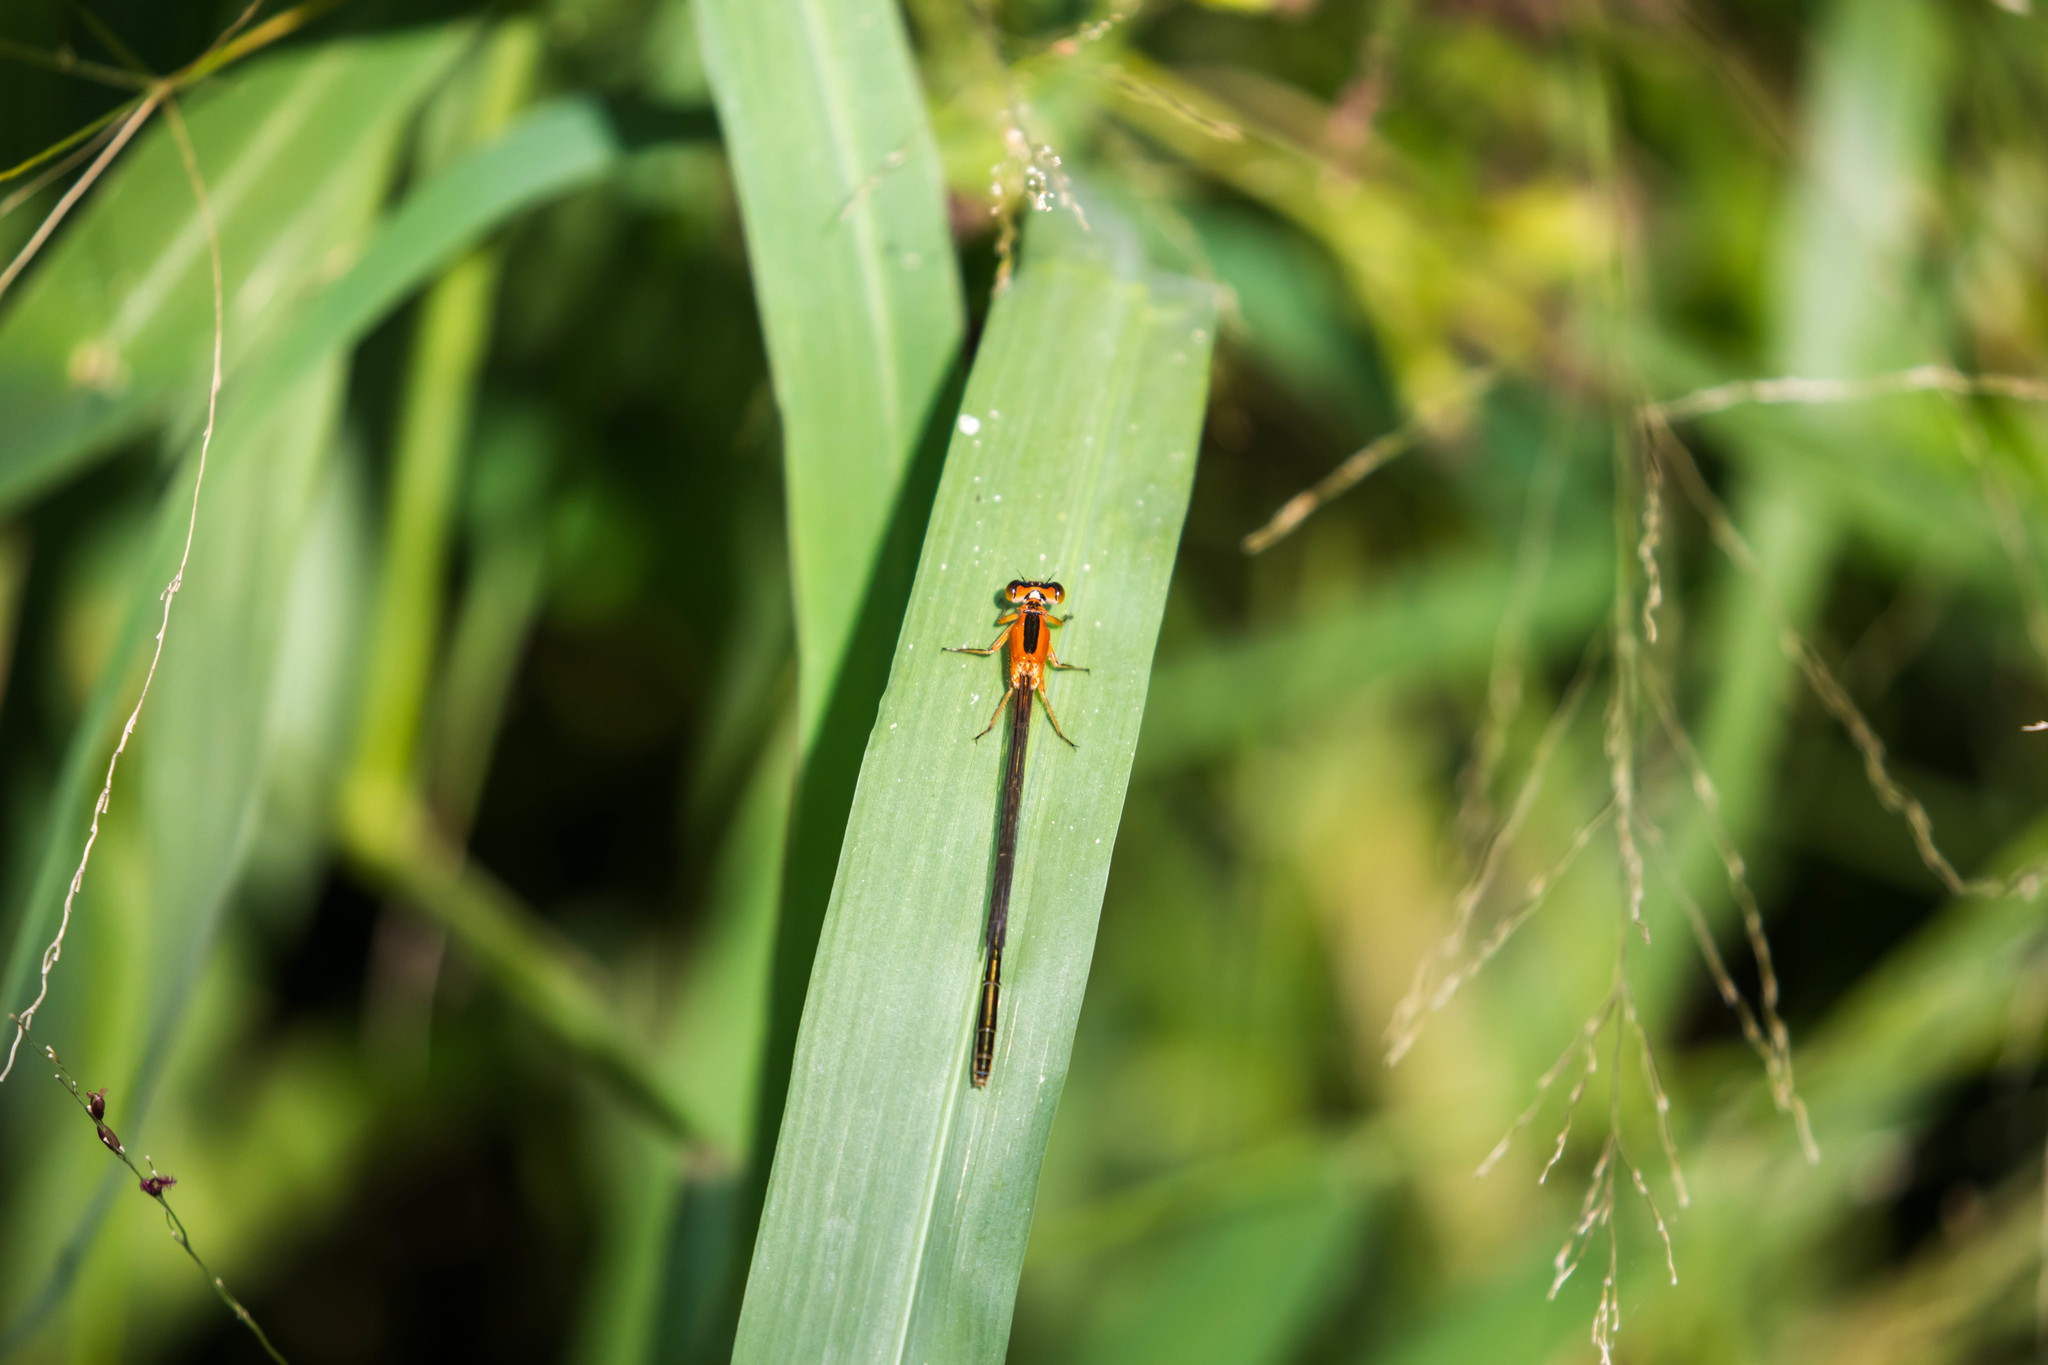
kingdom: Animalia
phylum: Arthropoda
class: Insecta
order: Odonata
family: Coenagrionidae
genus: Ischnura
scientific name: Ischnura ramburii
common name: Rambur's forktail
